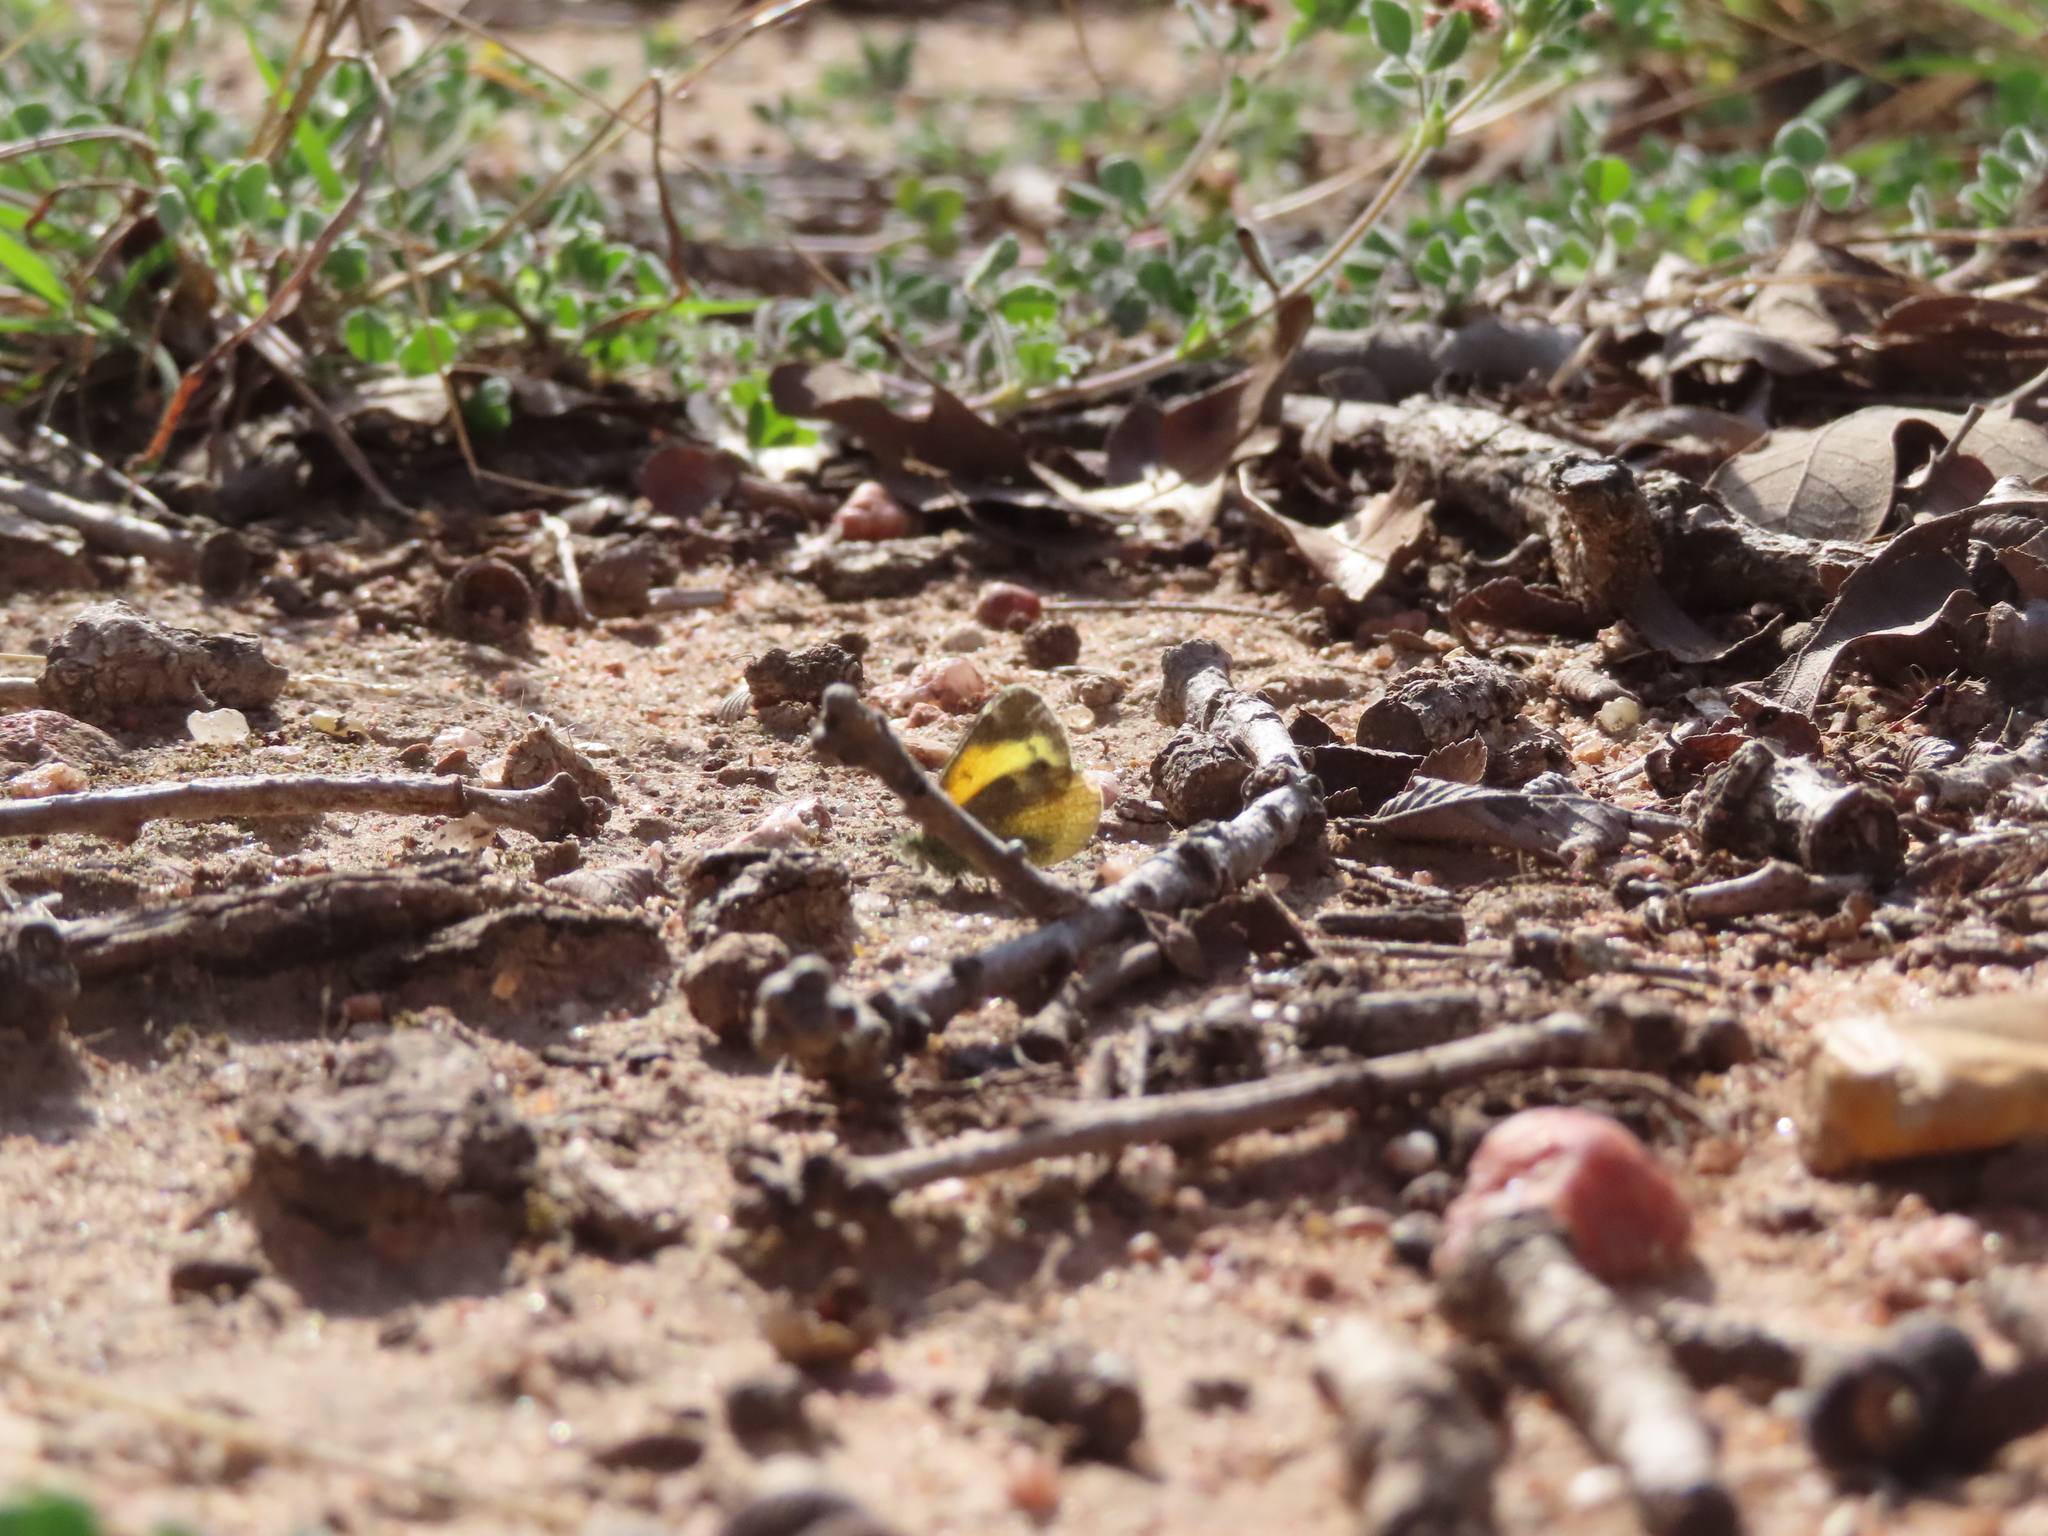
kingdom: Animalia
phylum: Arthropoda
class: Insecta
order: Lepidoptera
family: Pieridae
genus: Nathalis
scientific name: Nathalis iole
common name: Dainty sulphur
